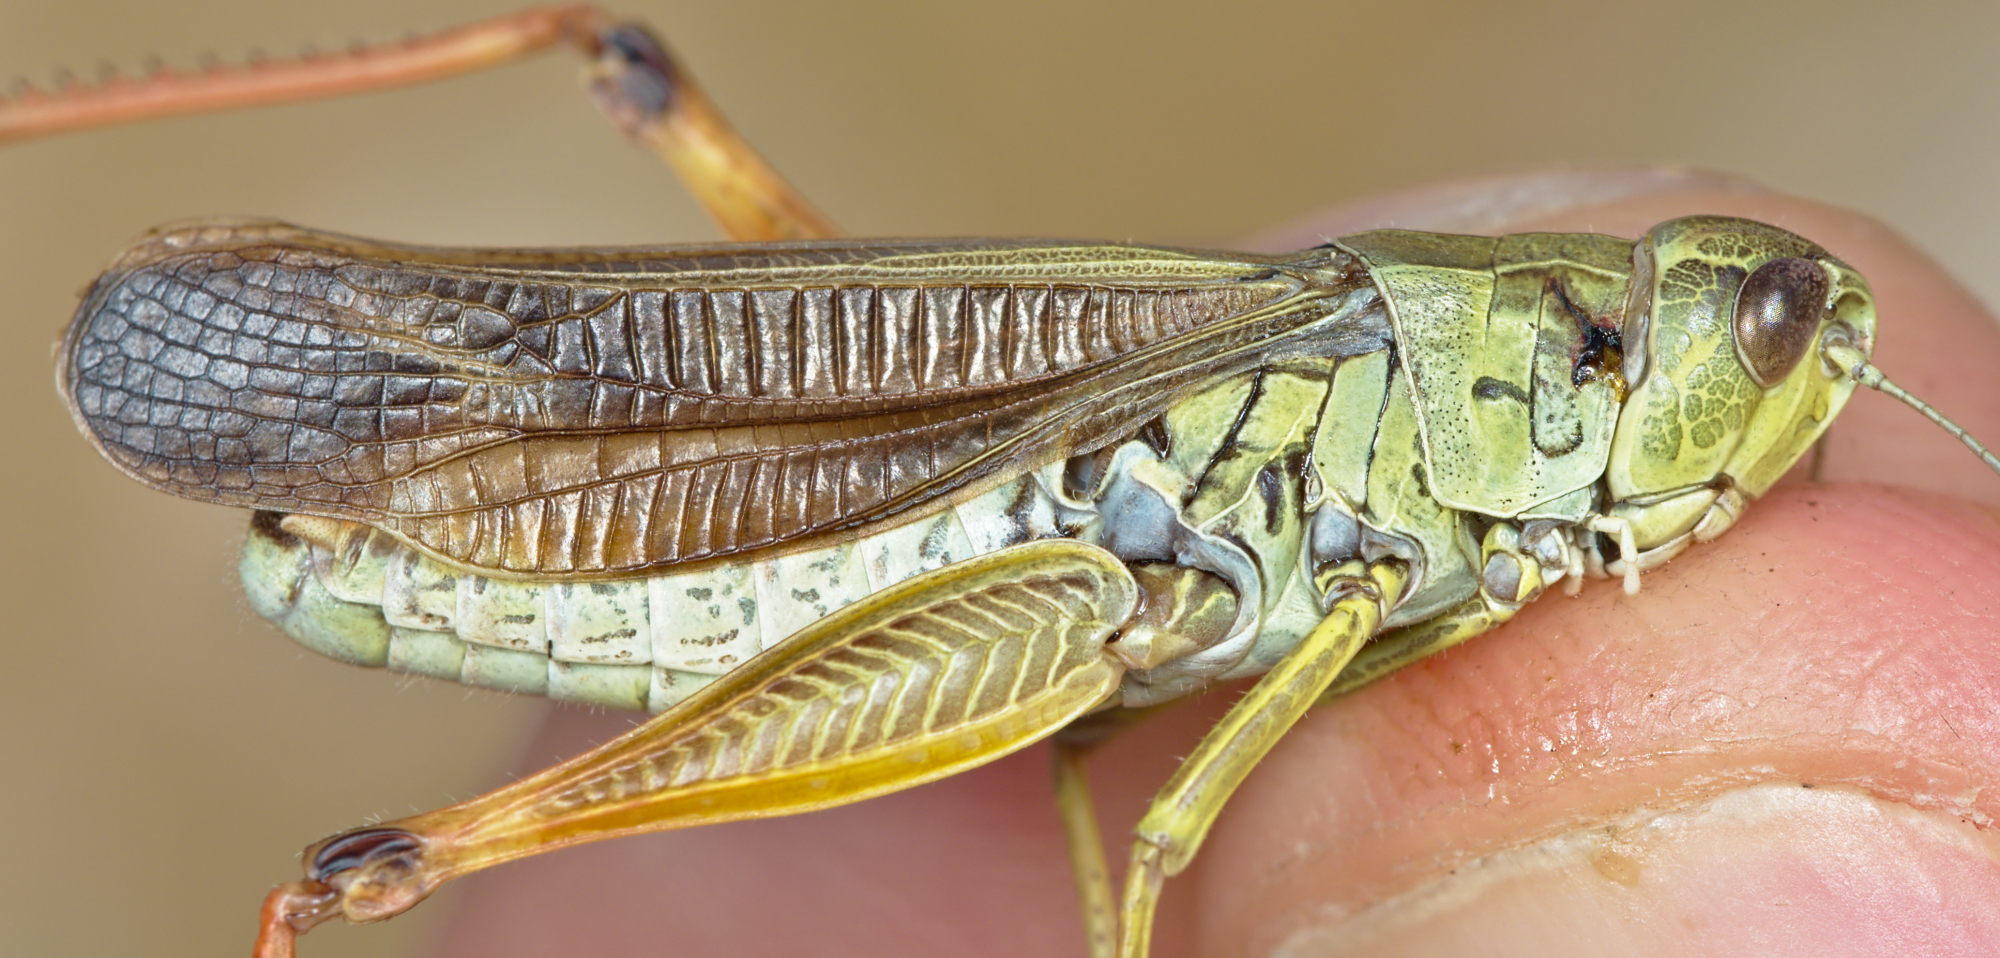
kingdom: Animalia
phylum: Arthropoda
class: Insecta
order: Orthoptera
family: Acrididae
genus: Stauroderus
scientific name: Stauroderus scalaris
